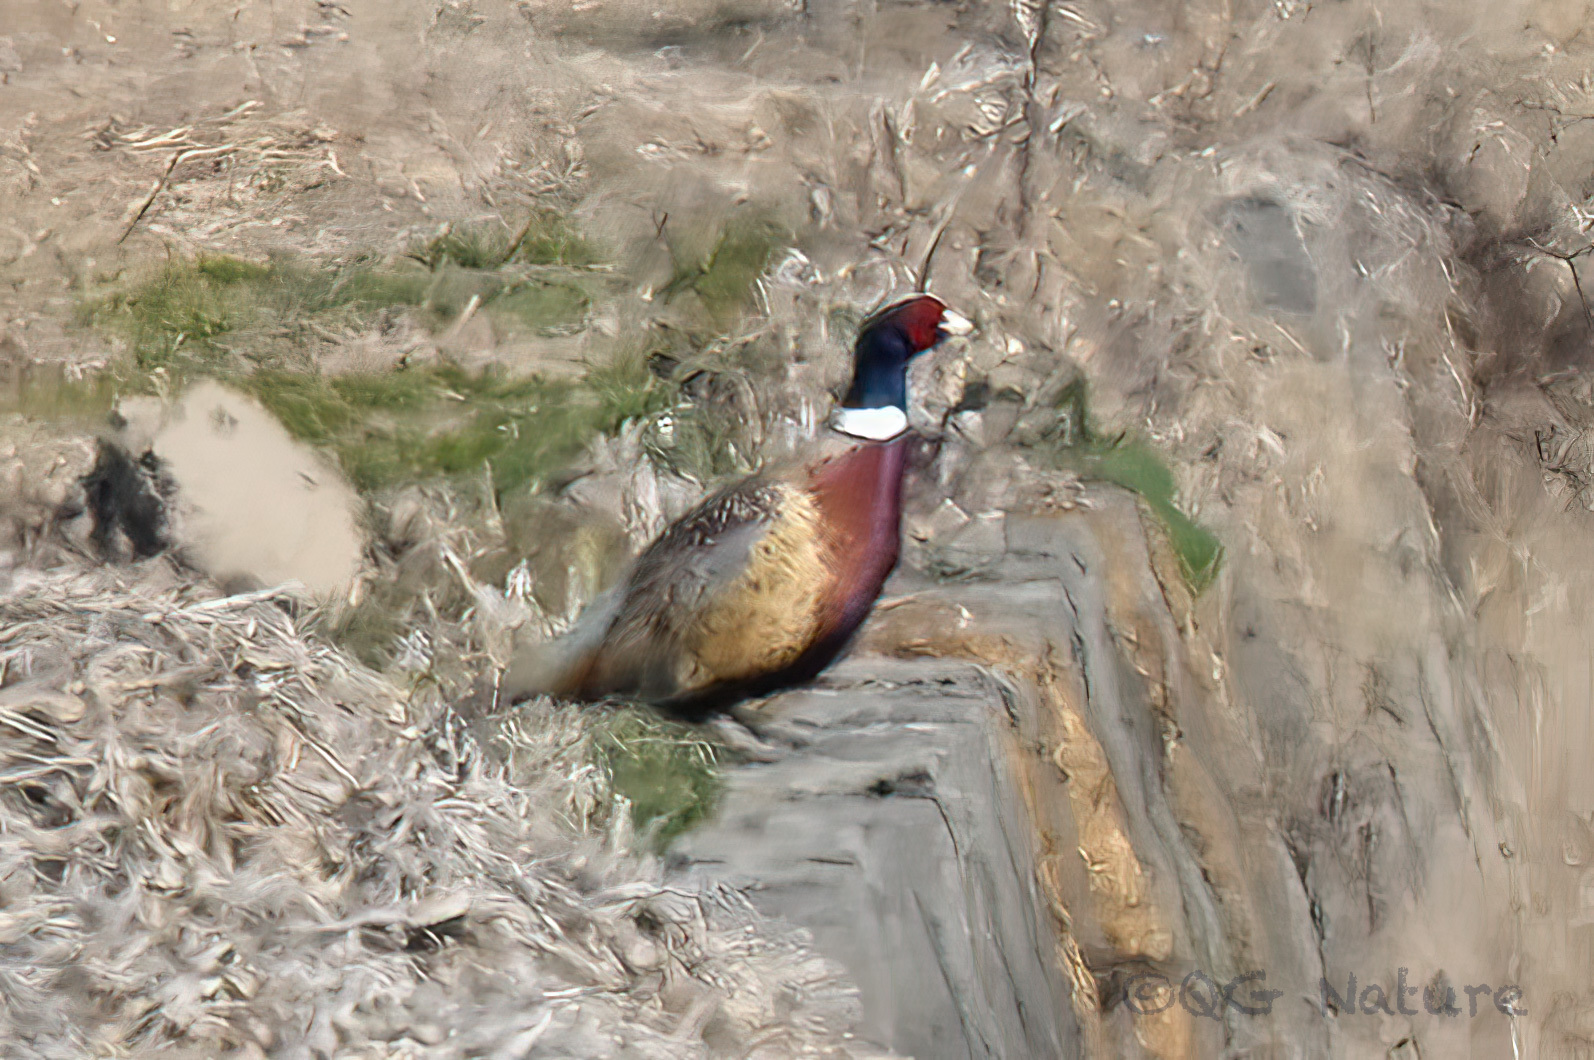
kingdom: Animalia
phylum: Chordata
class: Aves
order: Galliformes
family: Phasianidae
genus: Phasianus
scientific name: Phasianus colchicus
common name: Common pheasant
